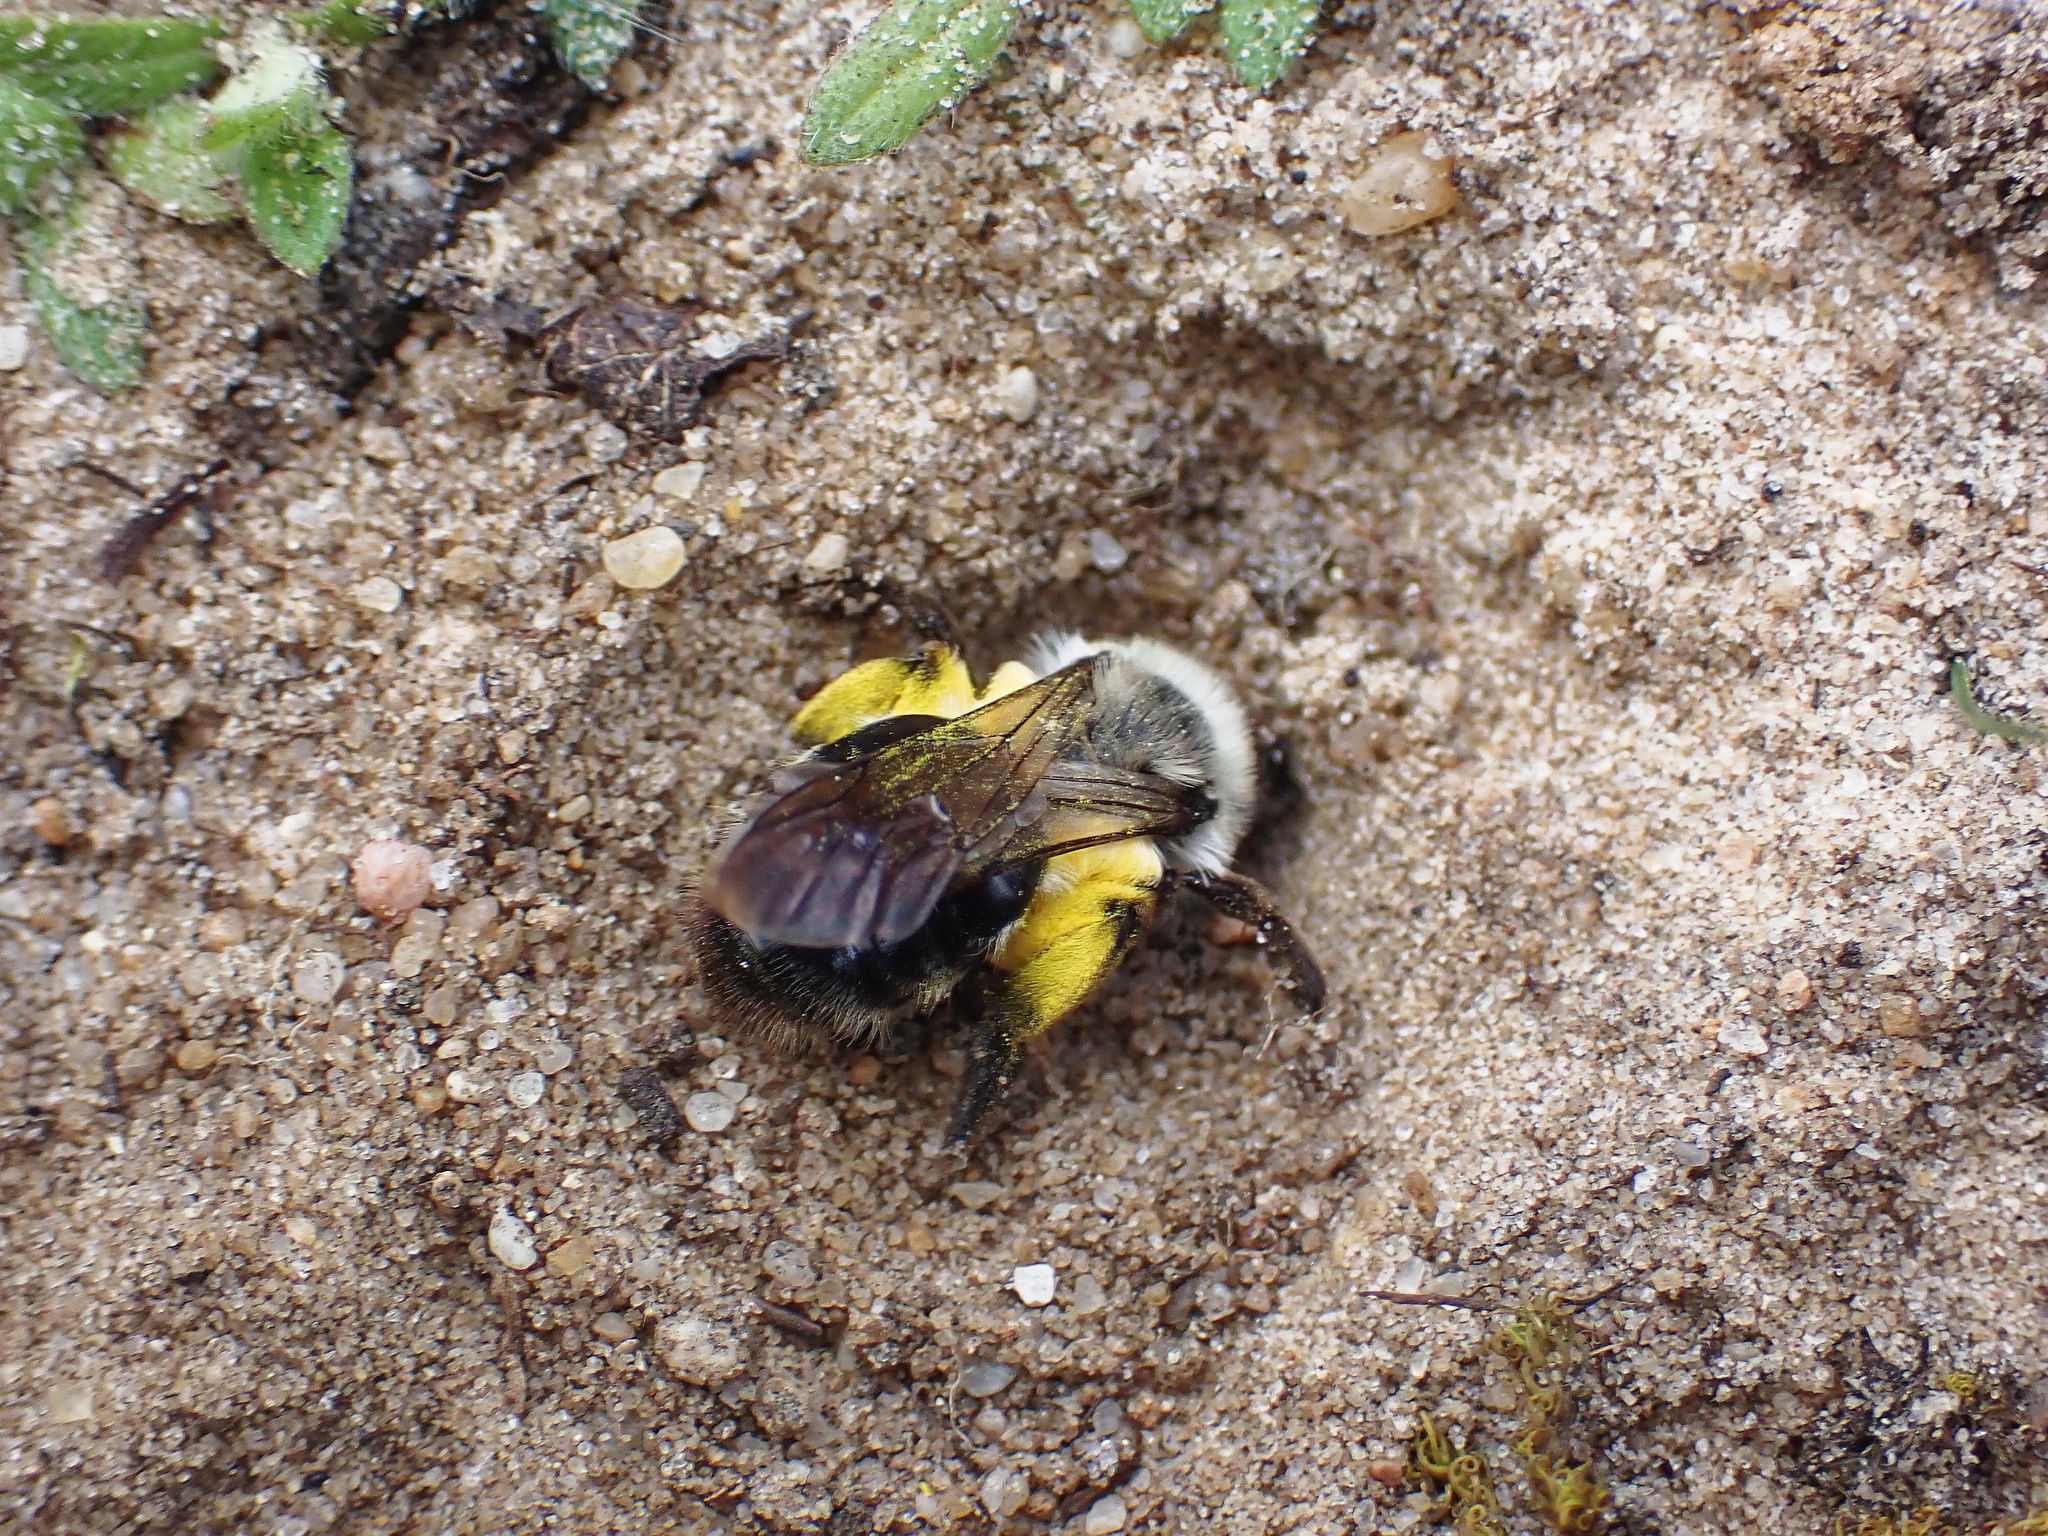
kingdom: Animalia
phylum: Arthropoda
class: Insecta
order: Hymenoptera
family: Andrenidae
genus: Andrena
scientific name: Andrena vaga
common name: Grey-backed mining bee
